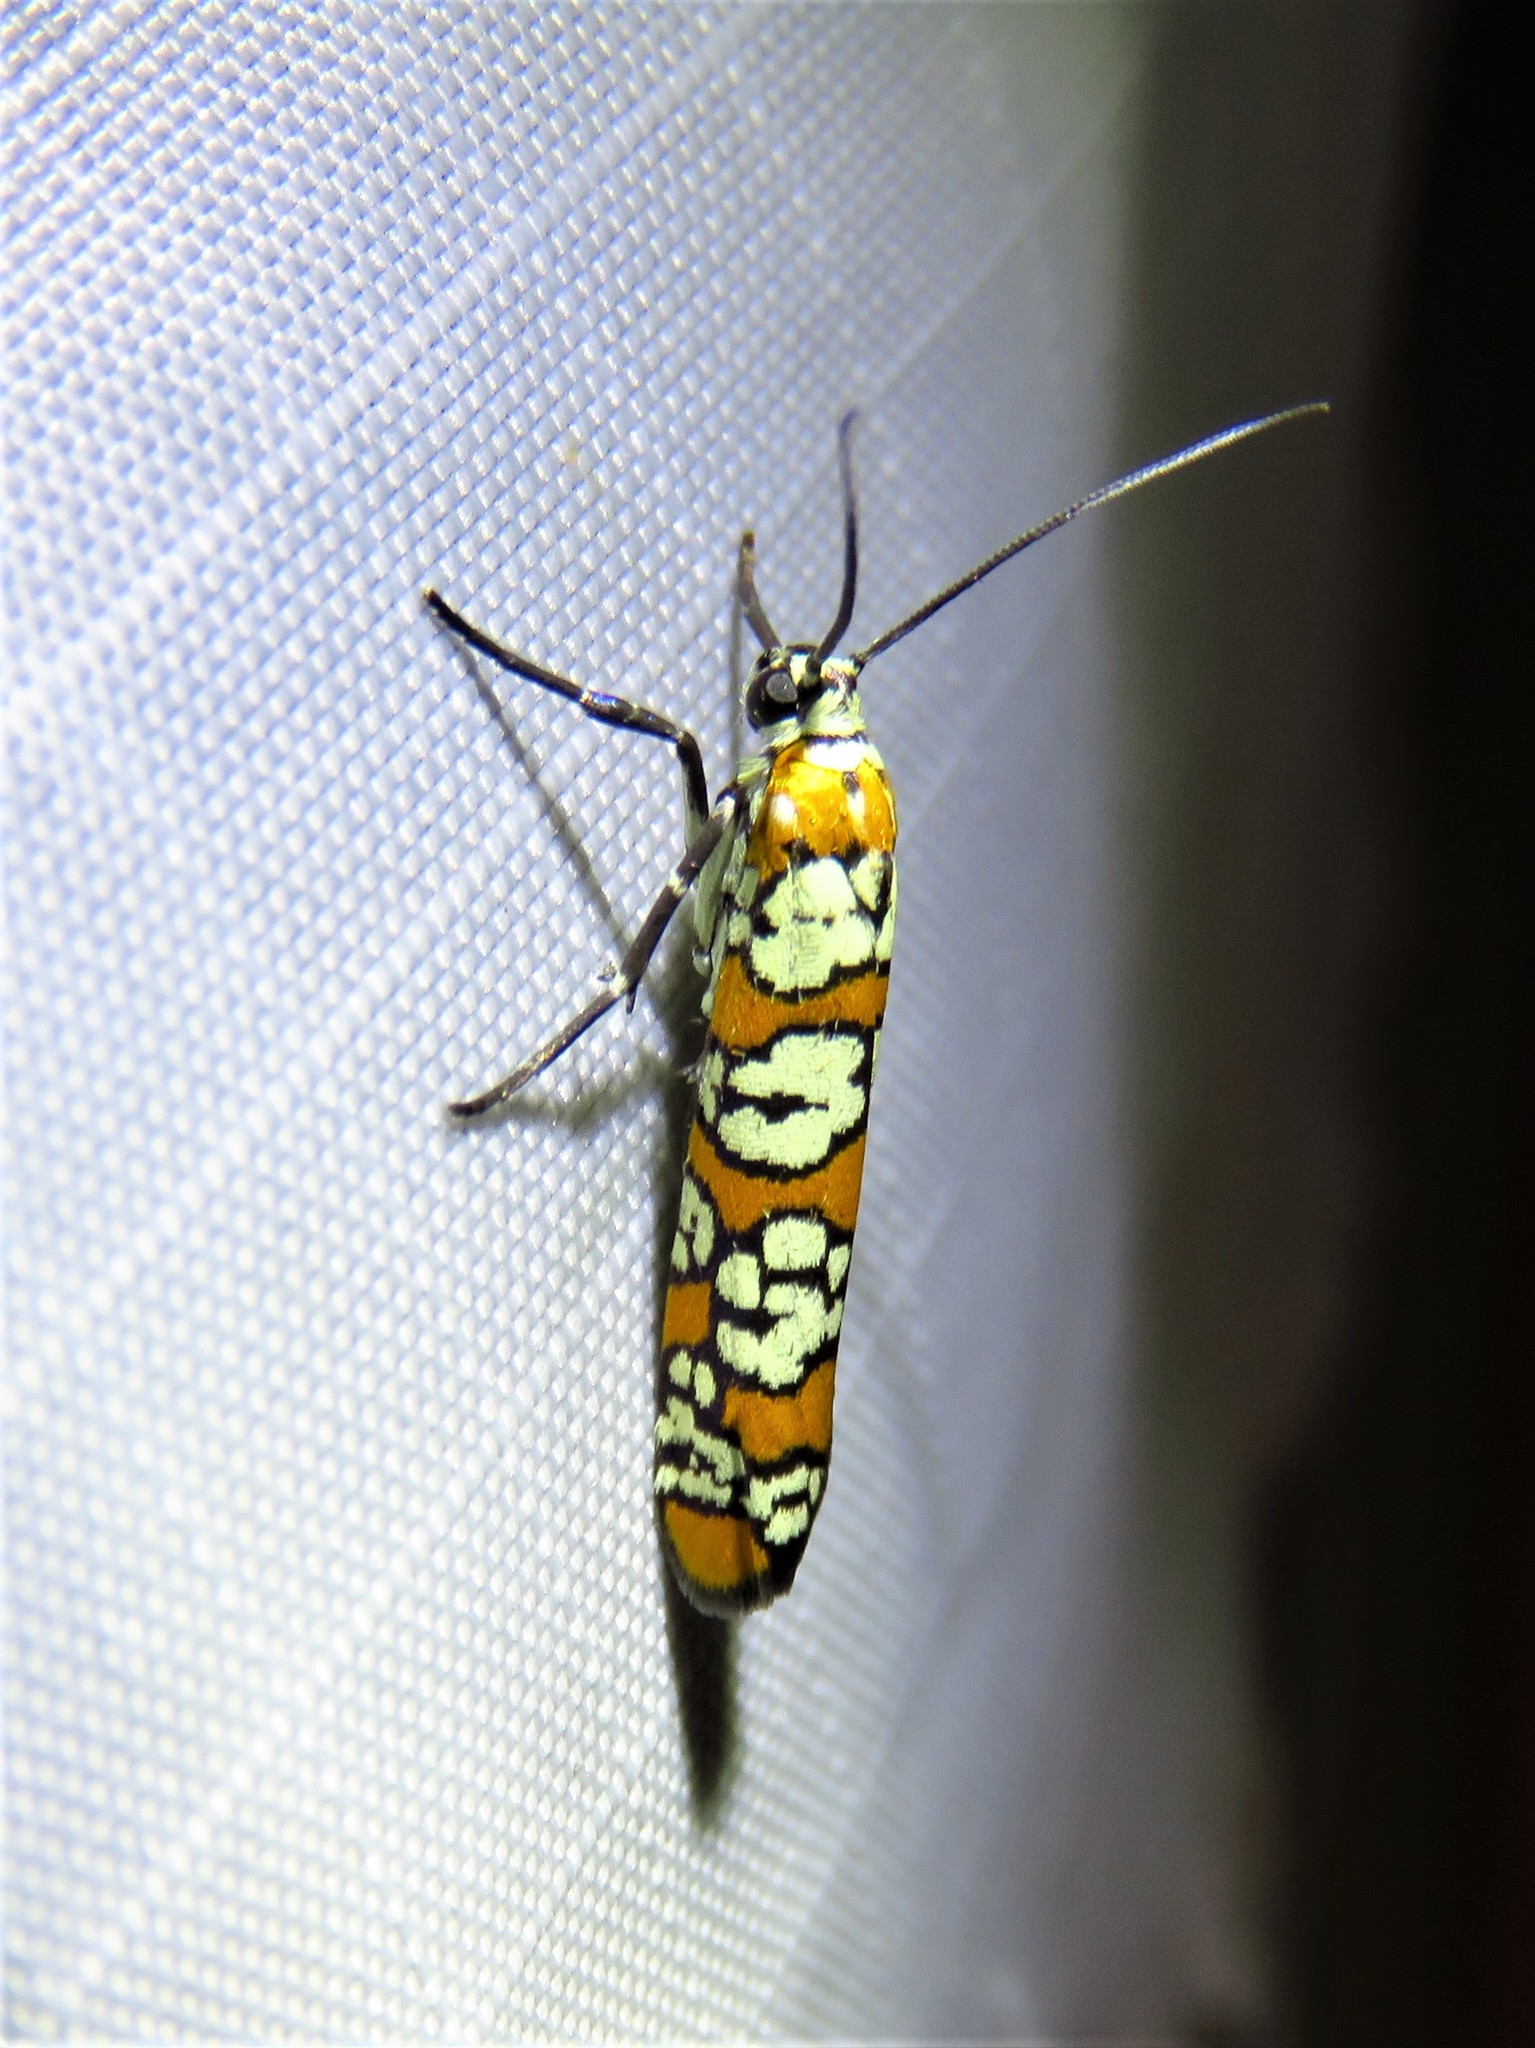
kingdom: Animalia
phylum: Arthropoda
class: Insecta
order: Lepidoptera
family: Attevidae
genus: Atteva
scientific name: Atteva punctella
